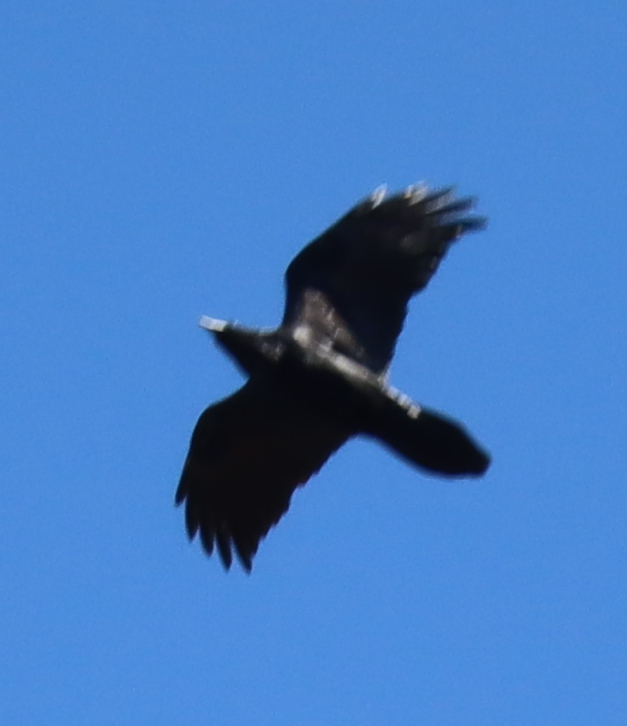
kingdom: Animalia
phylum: Chordata
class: Aves
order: Passeriformes
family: Corvidae
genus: Corvus
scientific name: Corvus corax
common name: Common raven
